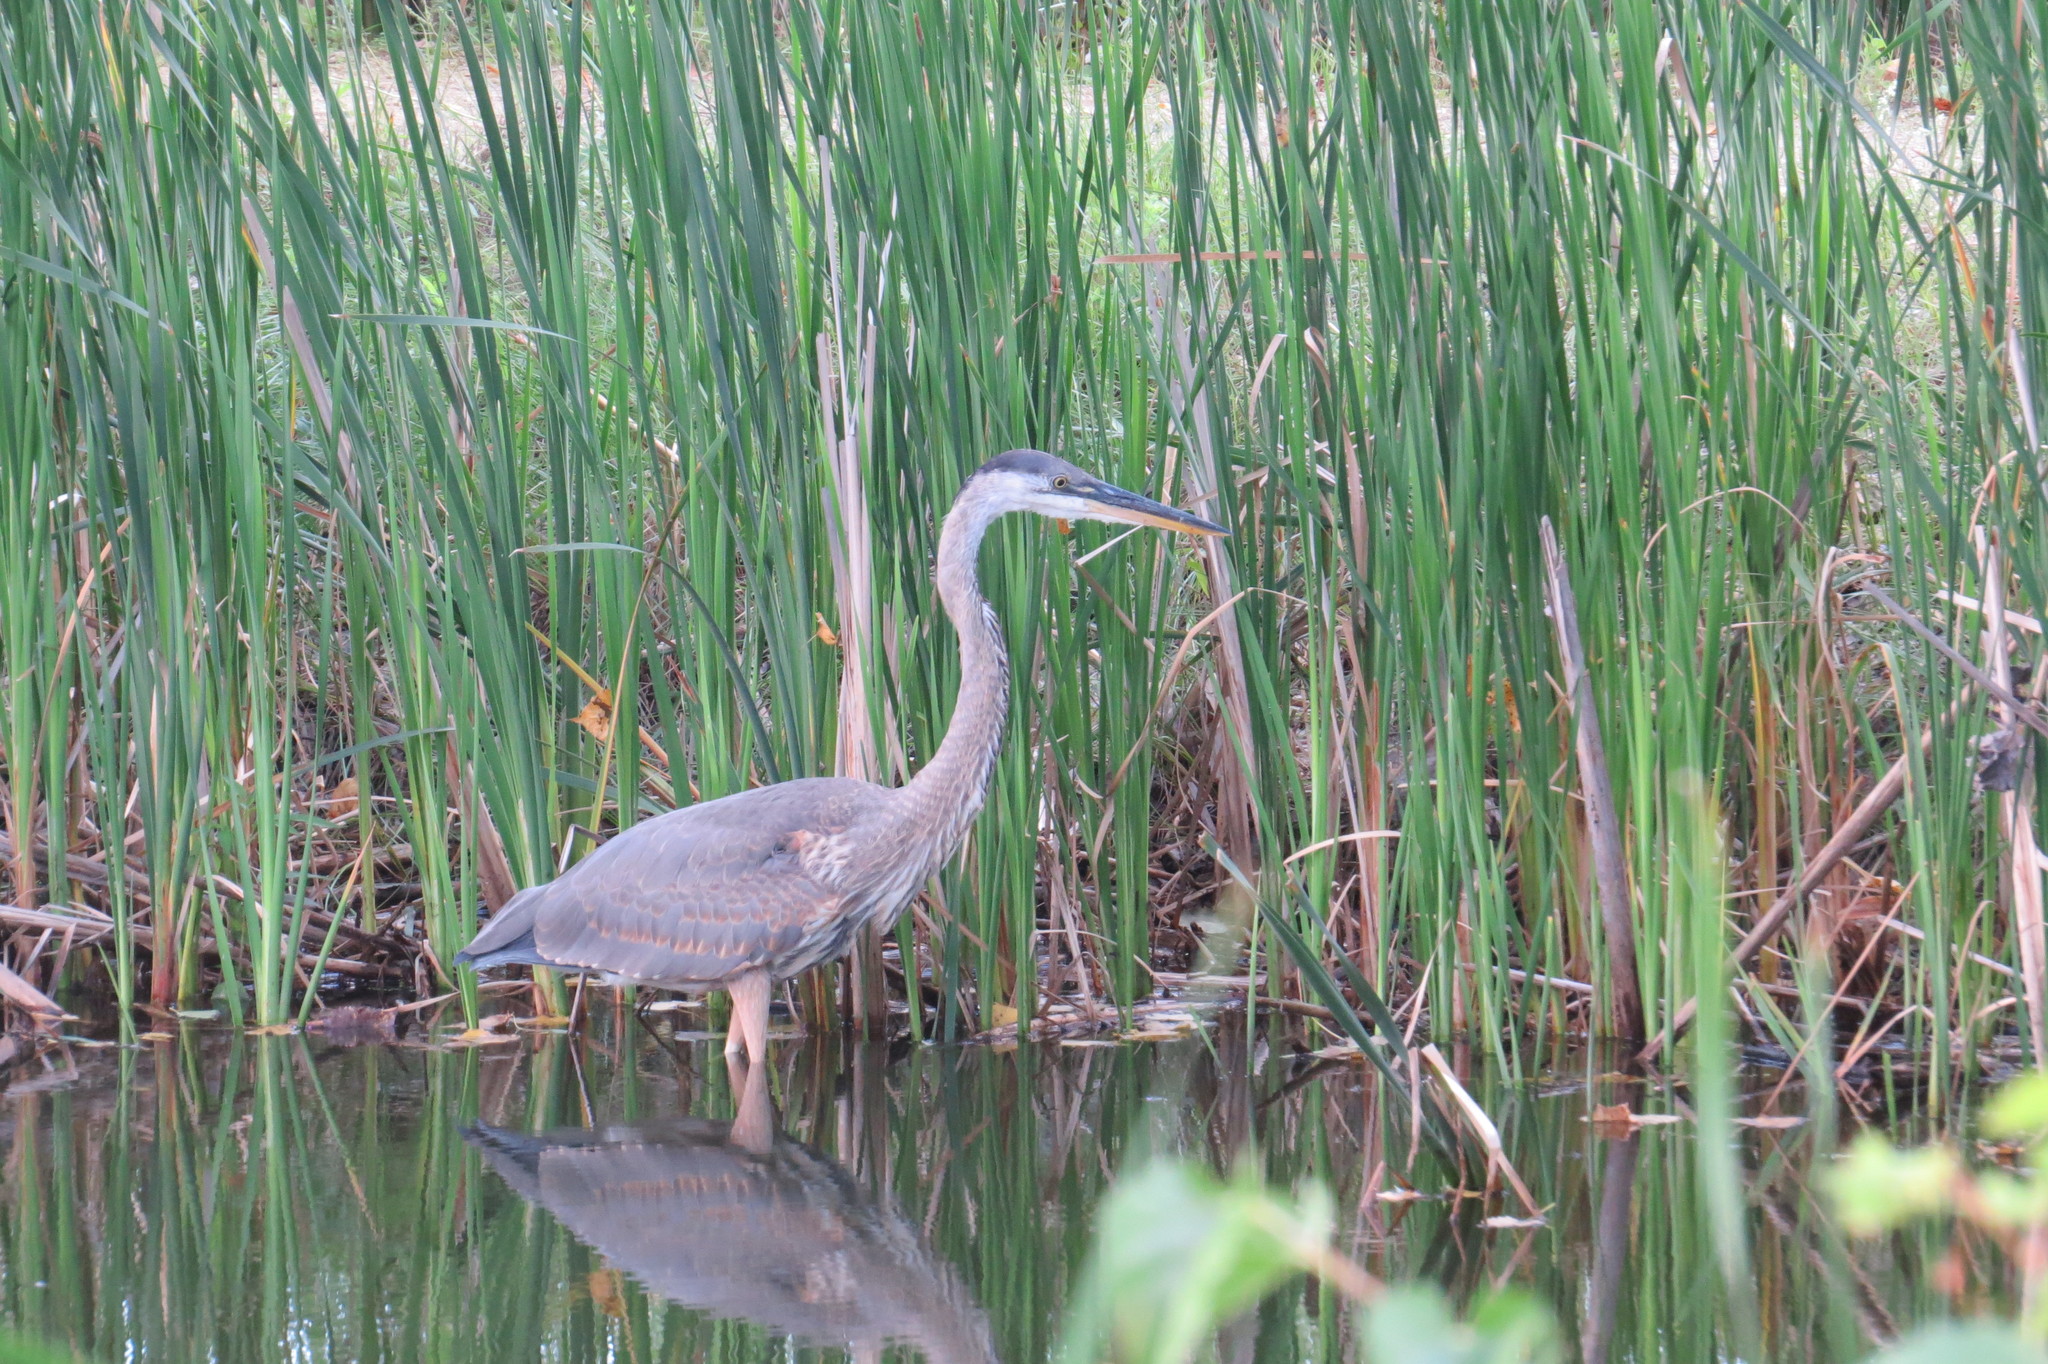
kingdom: Animalia
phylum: Chordata
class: Aves
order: Pelecaniformes
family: Ardeidae
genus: Ardea
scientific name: Ardea herodias
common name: Great blue heron
